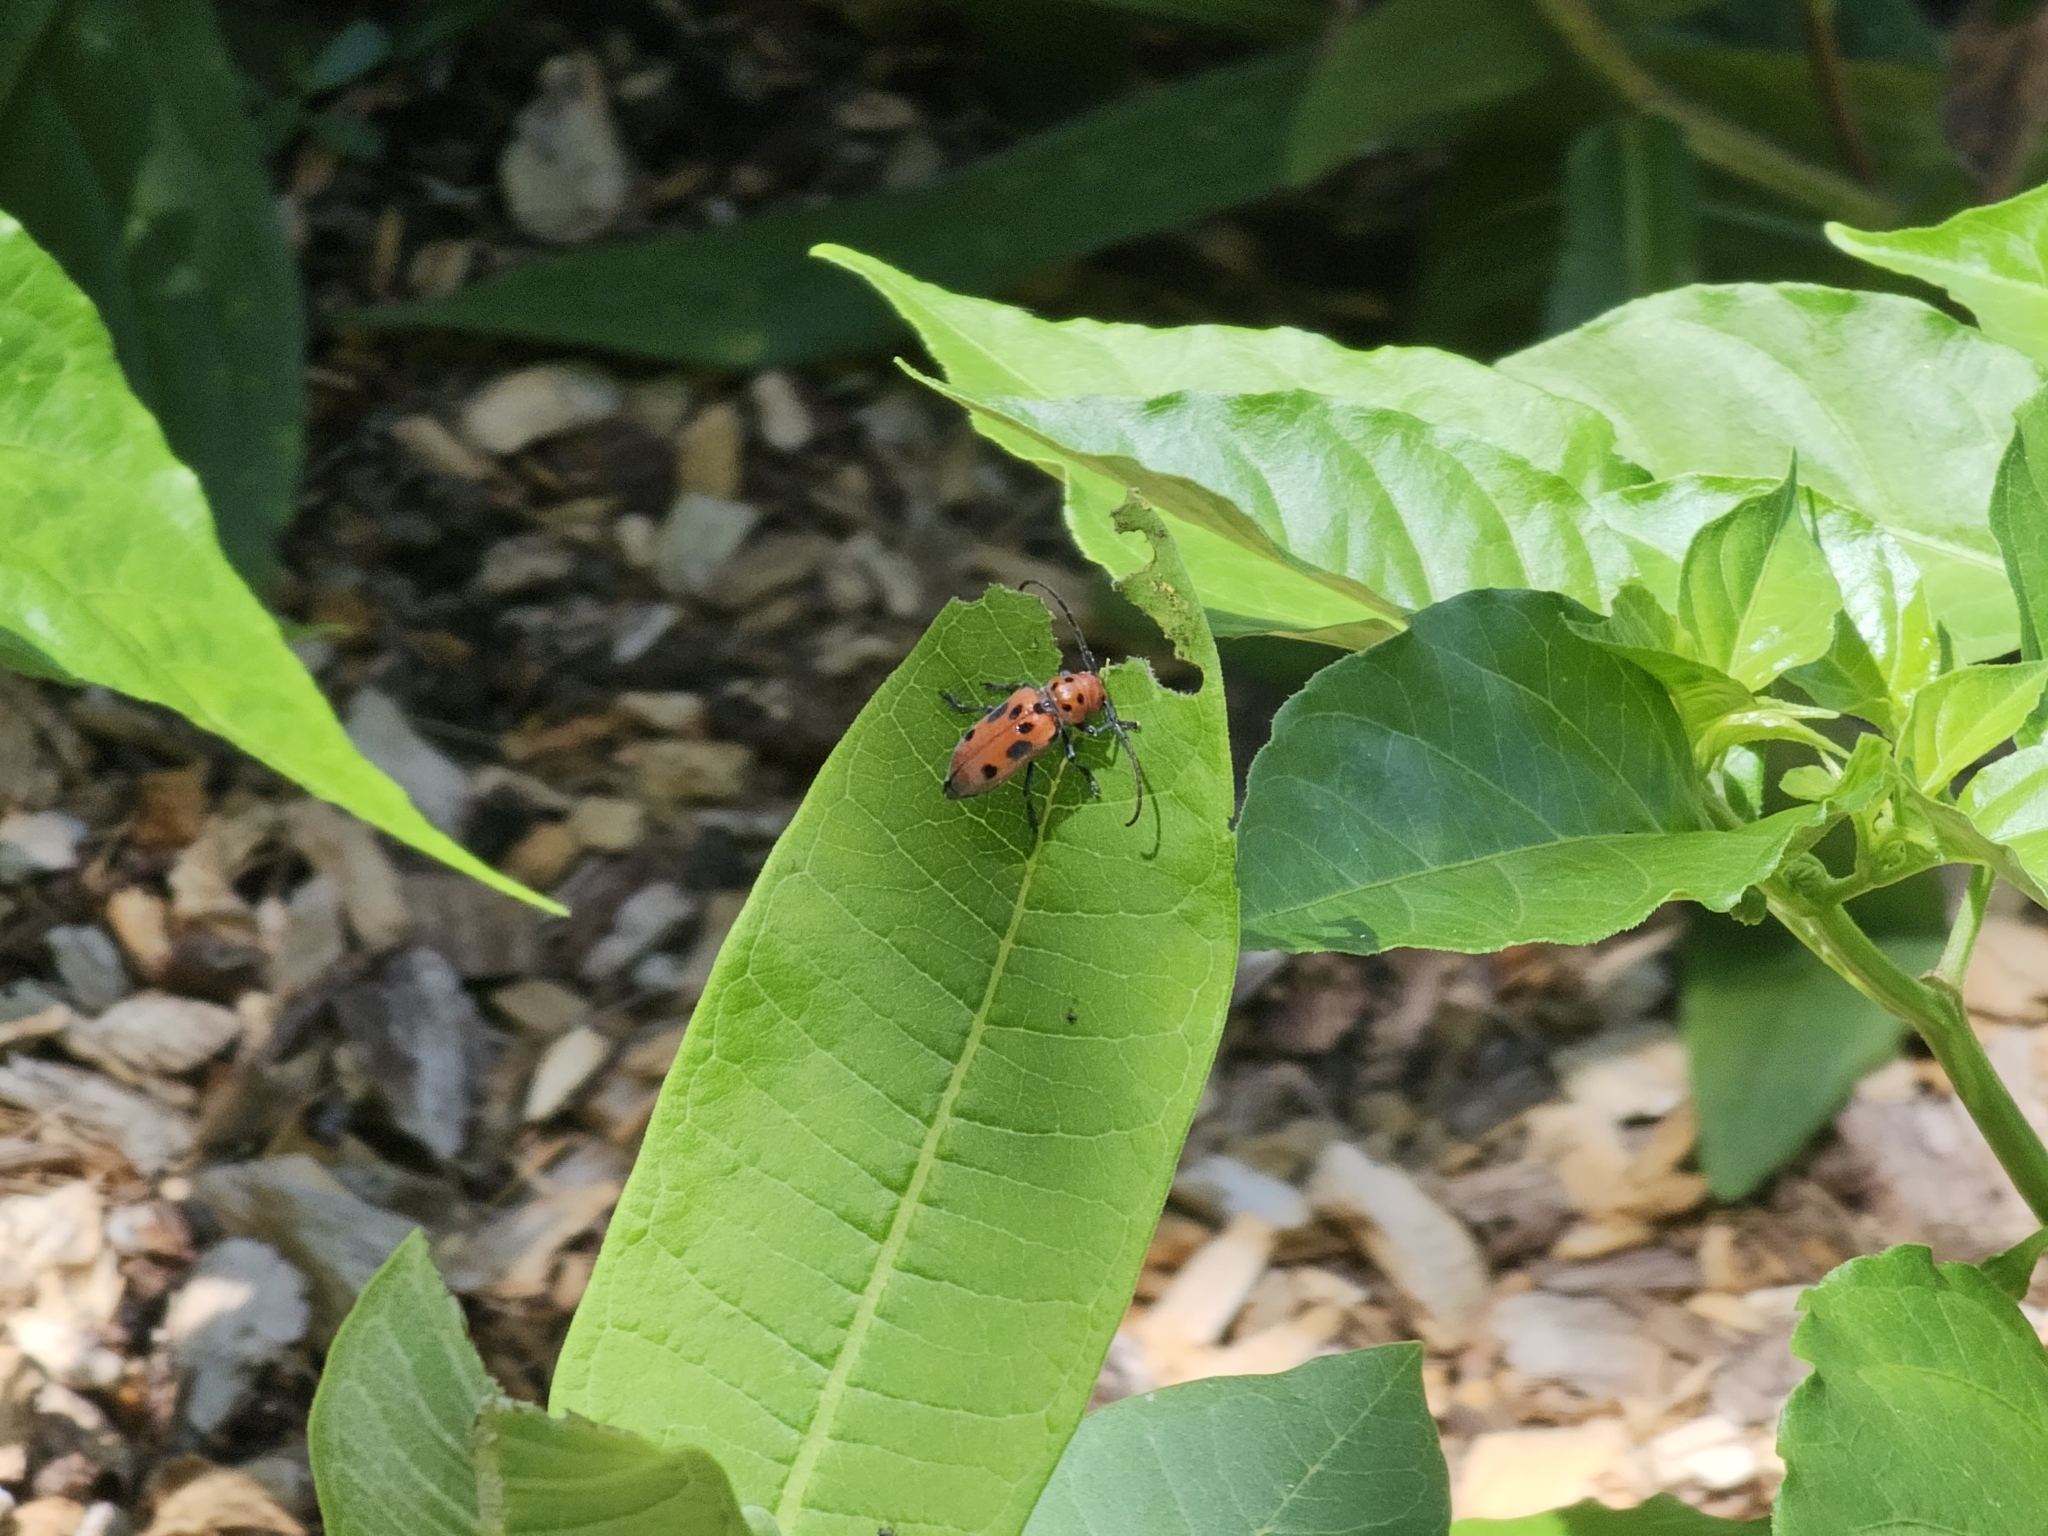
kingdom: Animalia
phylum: Arthropoda
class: Insecta
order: Coleoptera
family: Cerambycidae
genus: Tetraopes
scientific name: Tetraopes tetrophthalmus
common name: Red milkweed beetle
